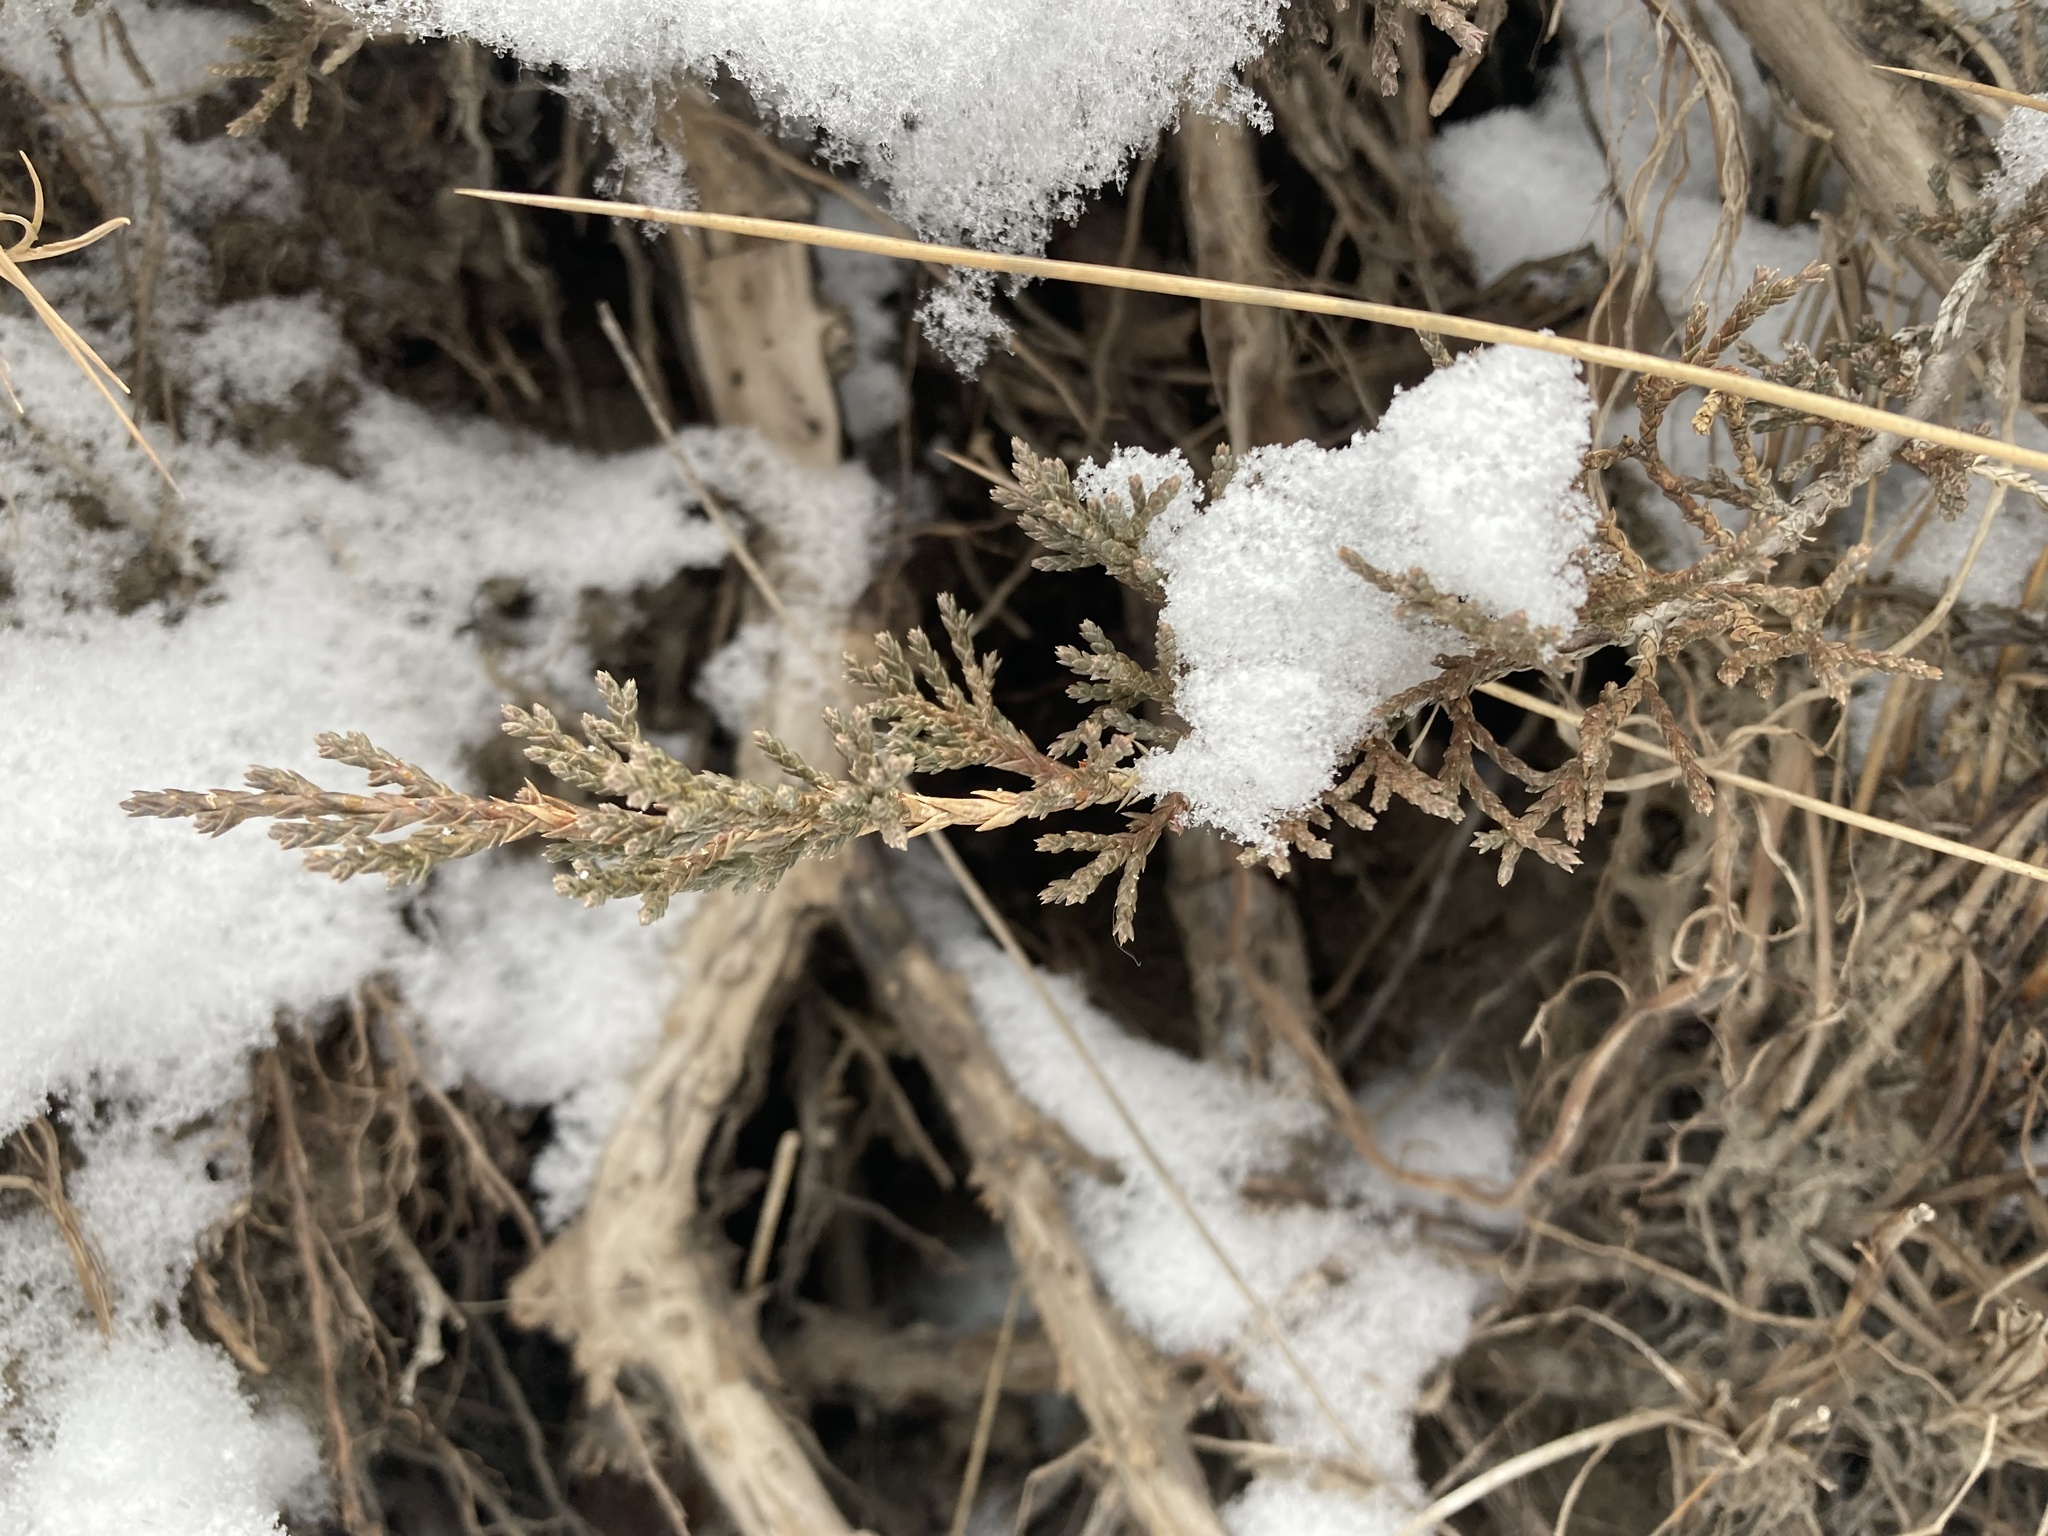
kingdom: Plantae
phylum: Tracheophyta
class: Pinopsida
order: Pinales
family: Cupressaceae
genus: Juniperus
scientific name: Juniperus horizontalis
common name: Creeping juniper
